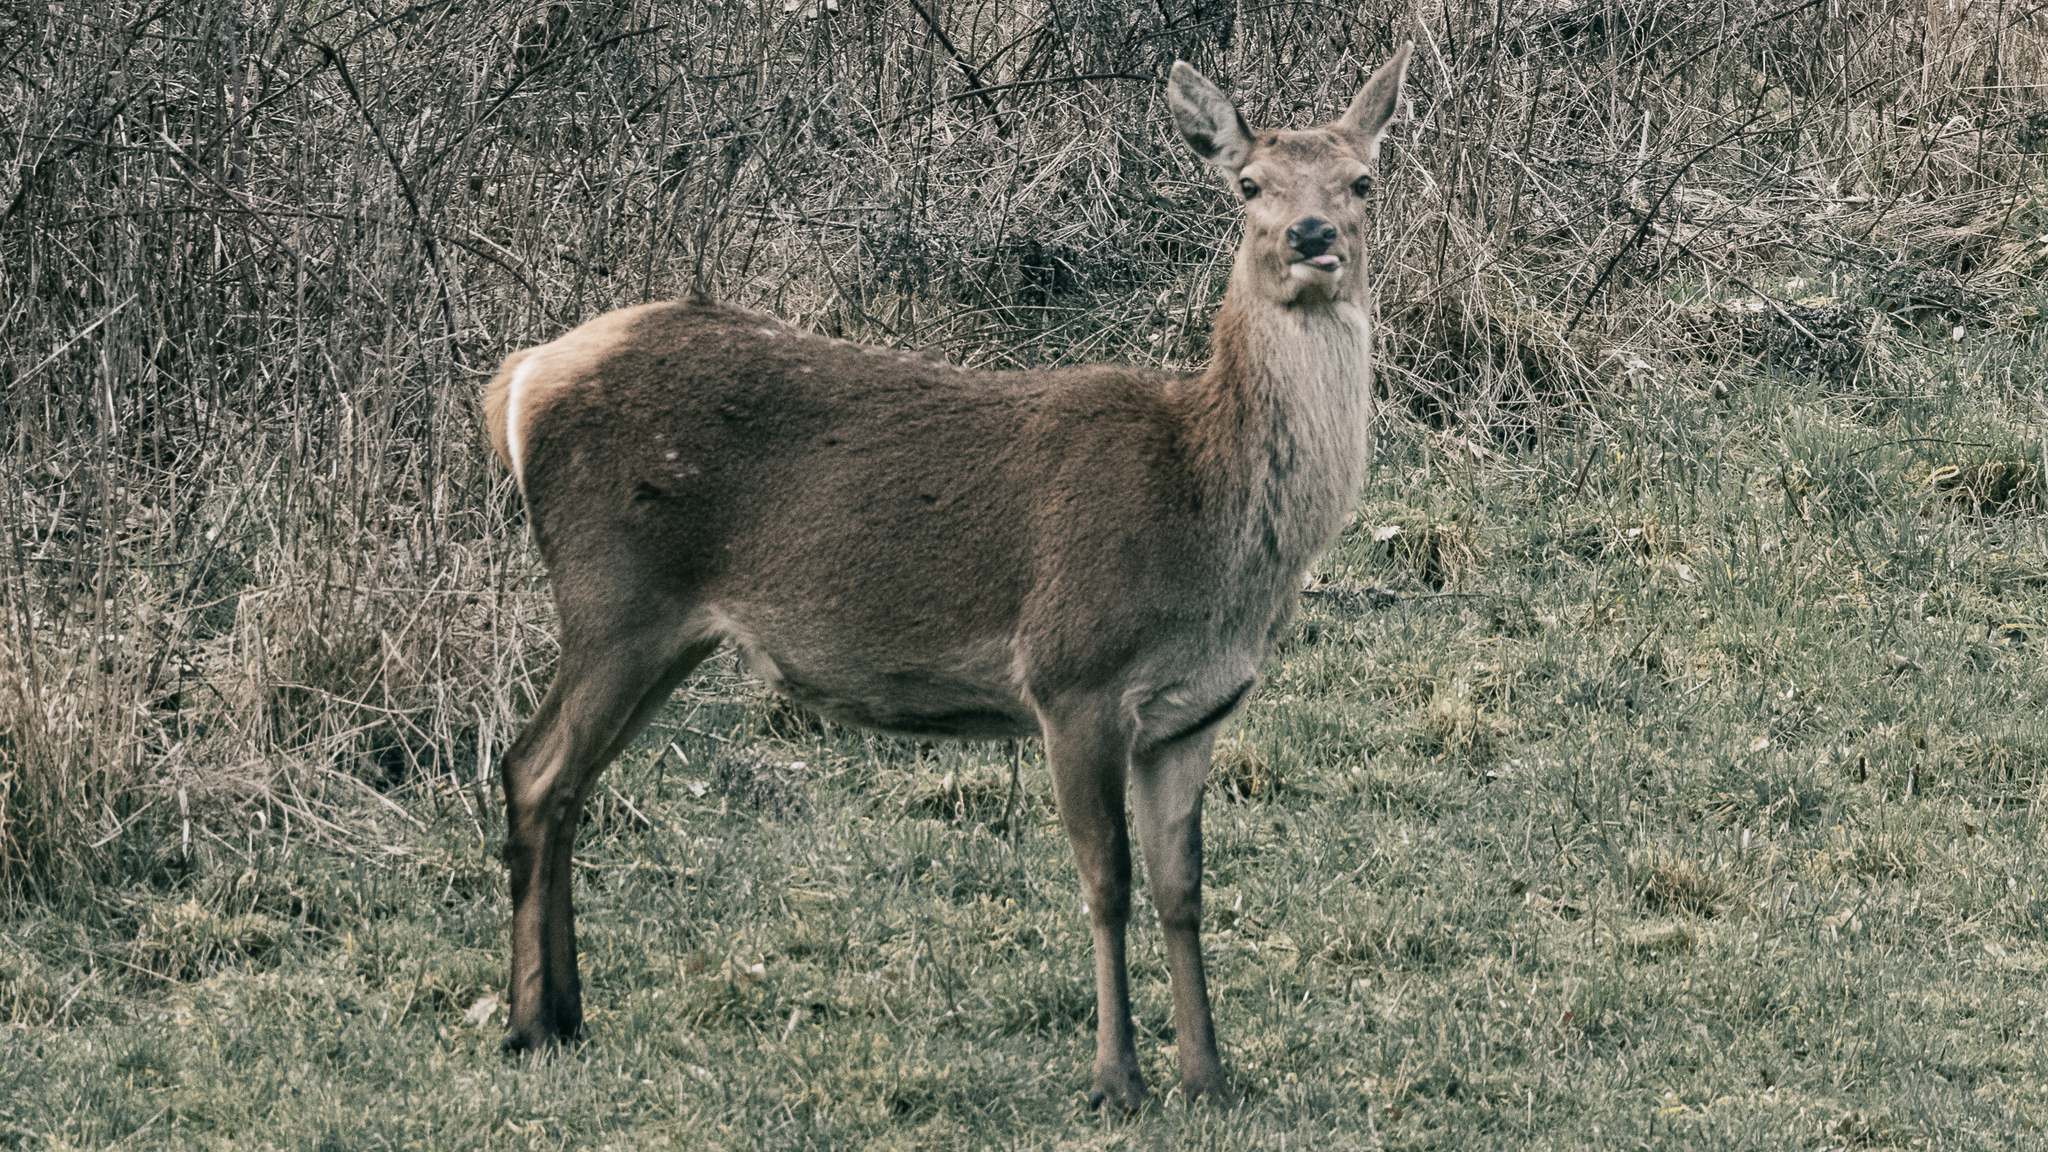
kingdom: Animalia
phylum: Chordata
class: Mammalia
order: Artiodactyla
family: Cervidae
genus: Cervus
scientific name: Cervus elaphus
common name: Red deer
